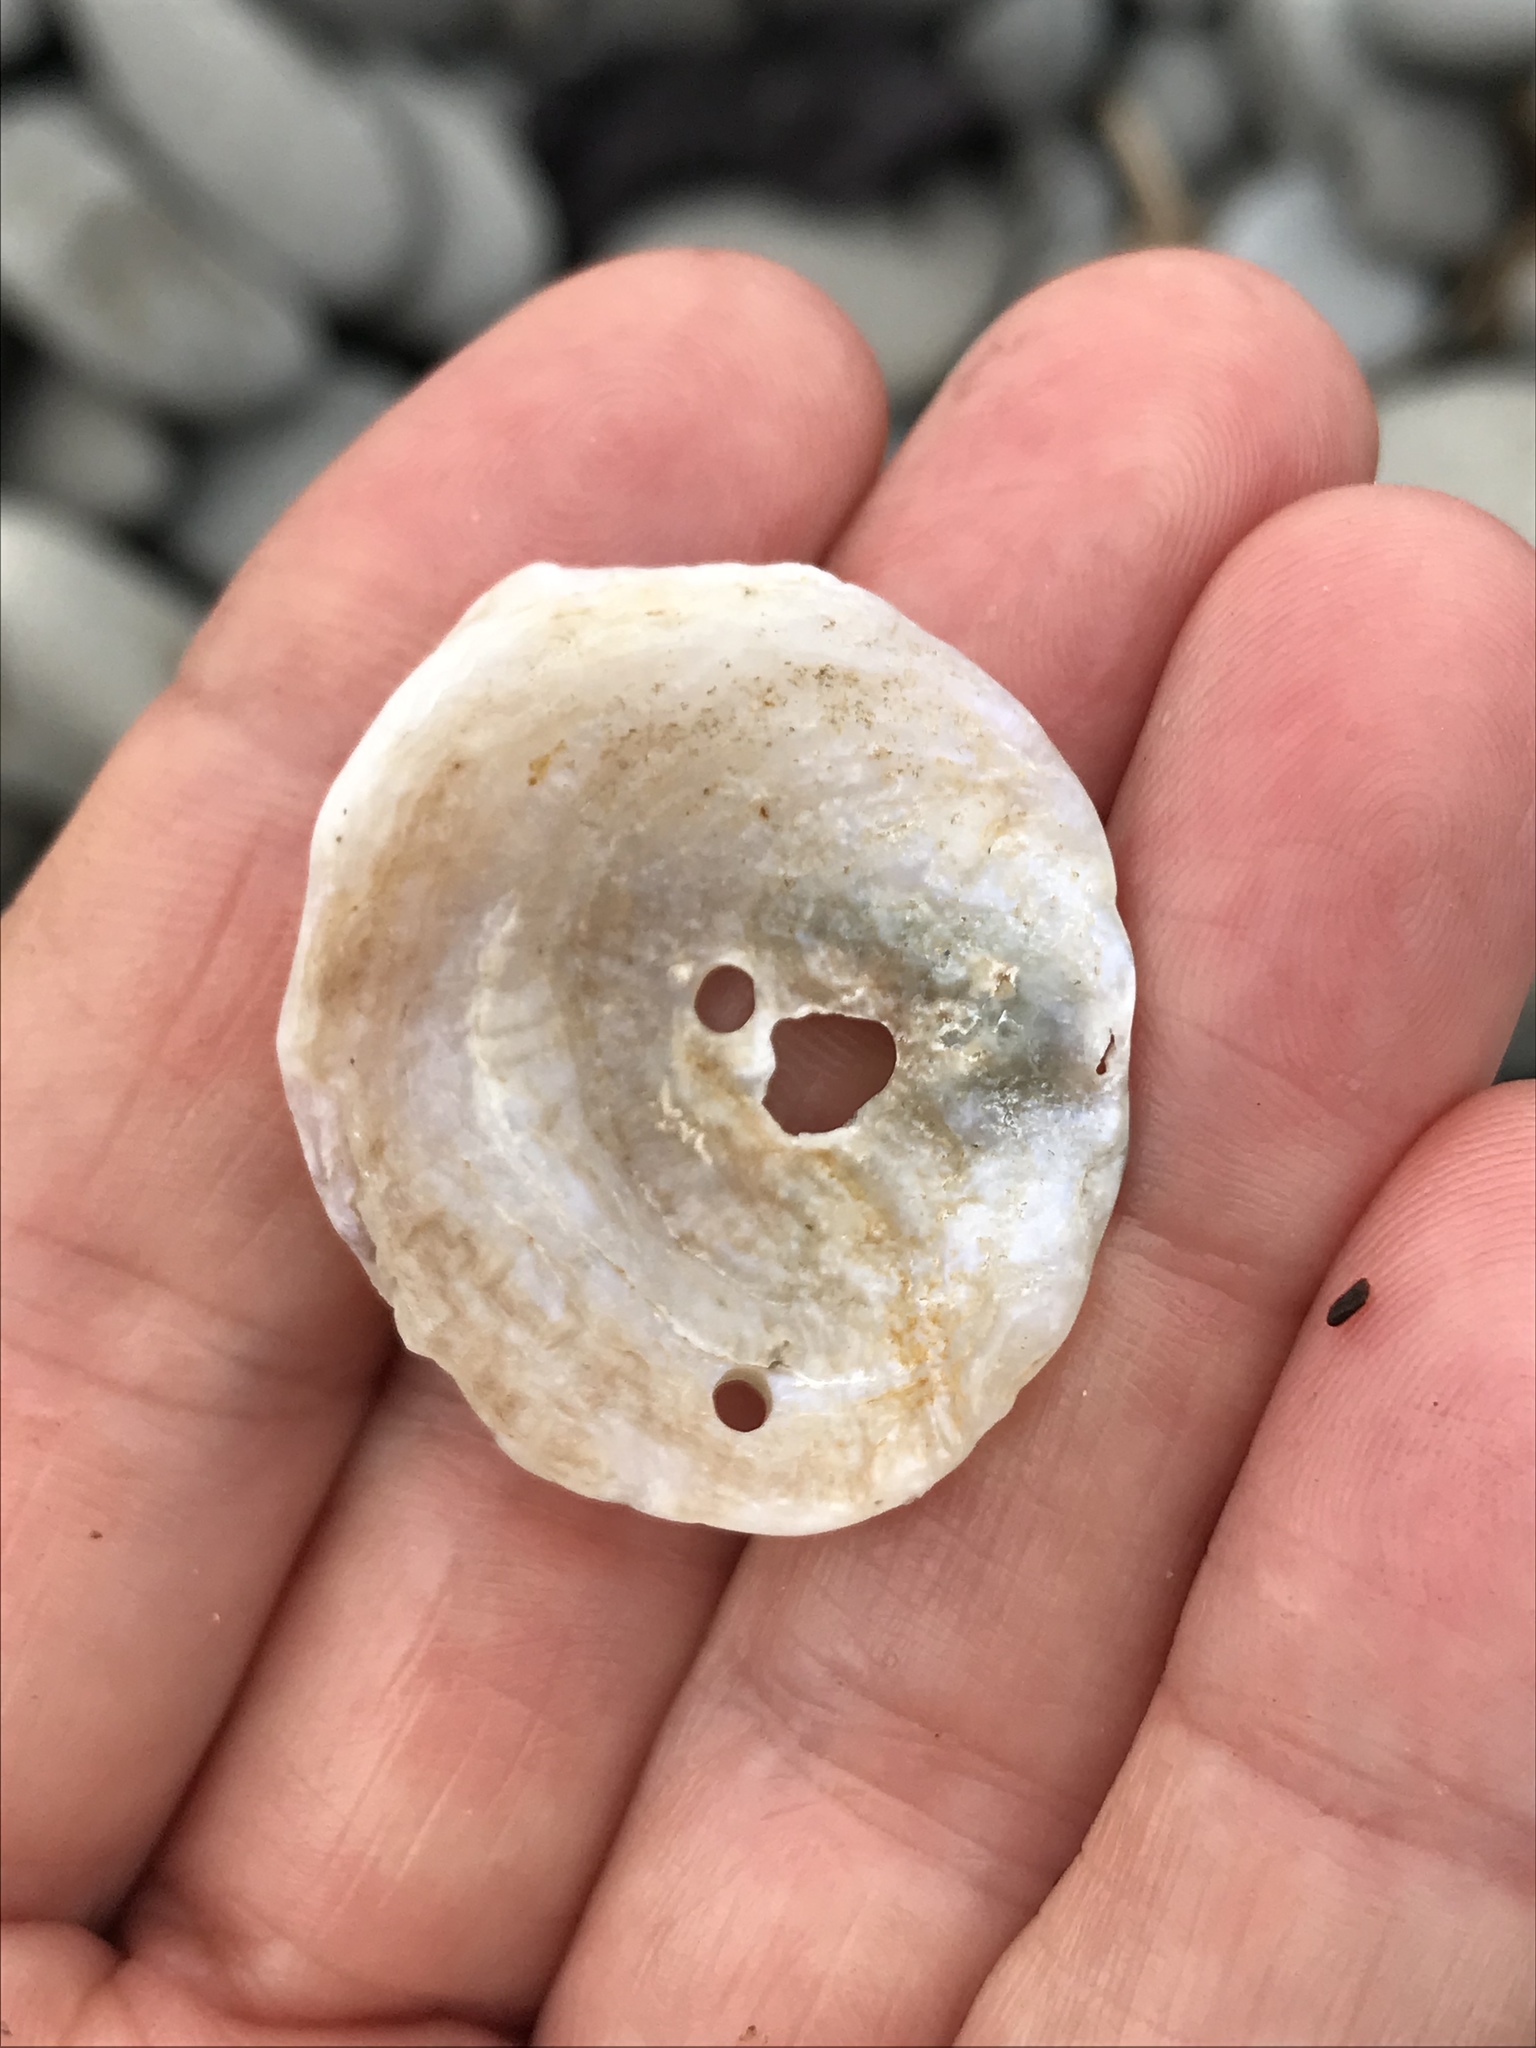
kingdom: Animalia
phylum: Mollusca
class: Bivalvia
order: Pectinida
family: Anomiidae
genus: Pododesmus
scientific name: Pododesmus macrochisma
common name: Alaska jingle
